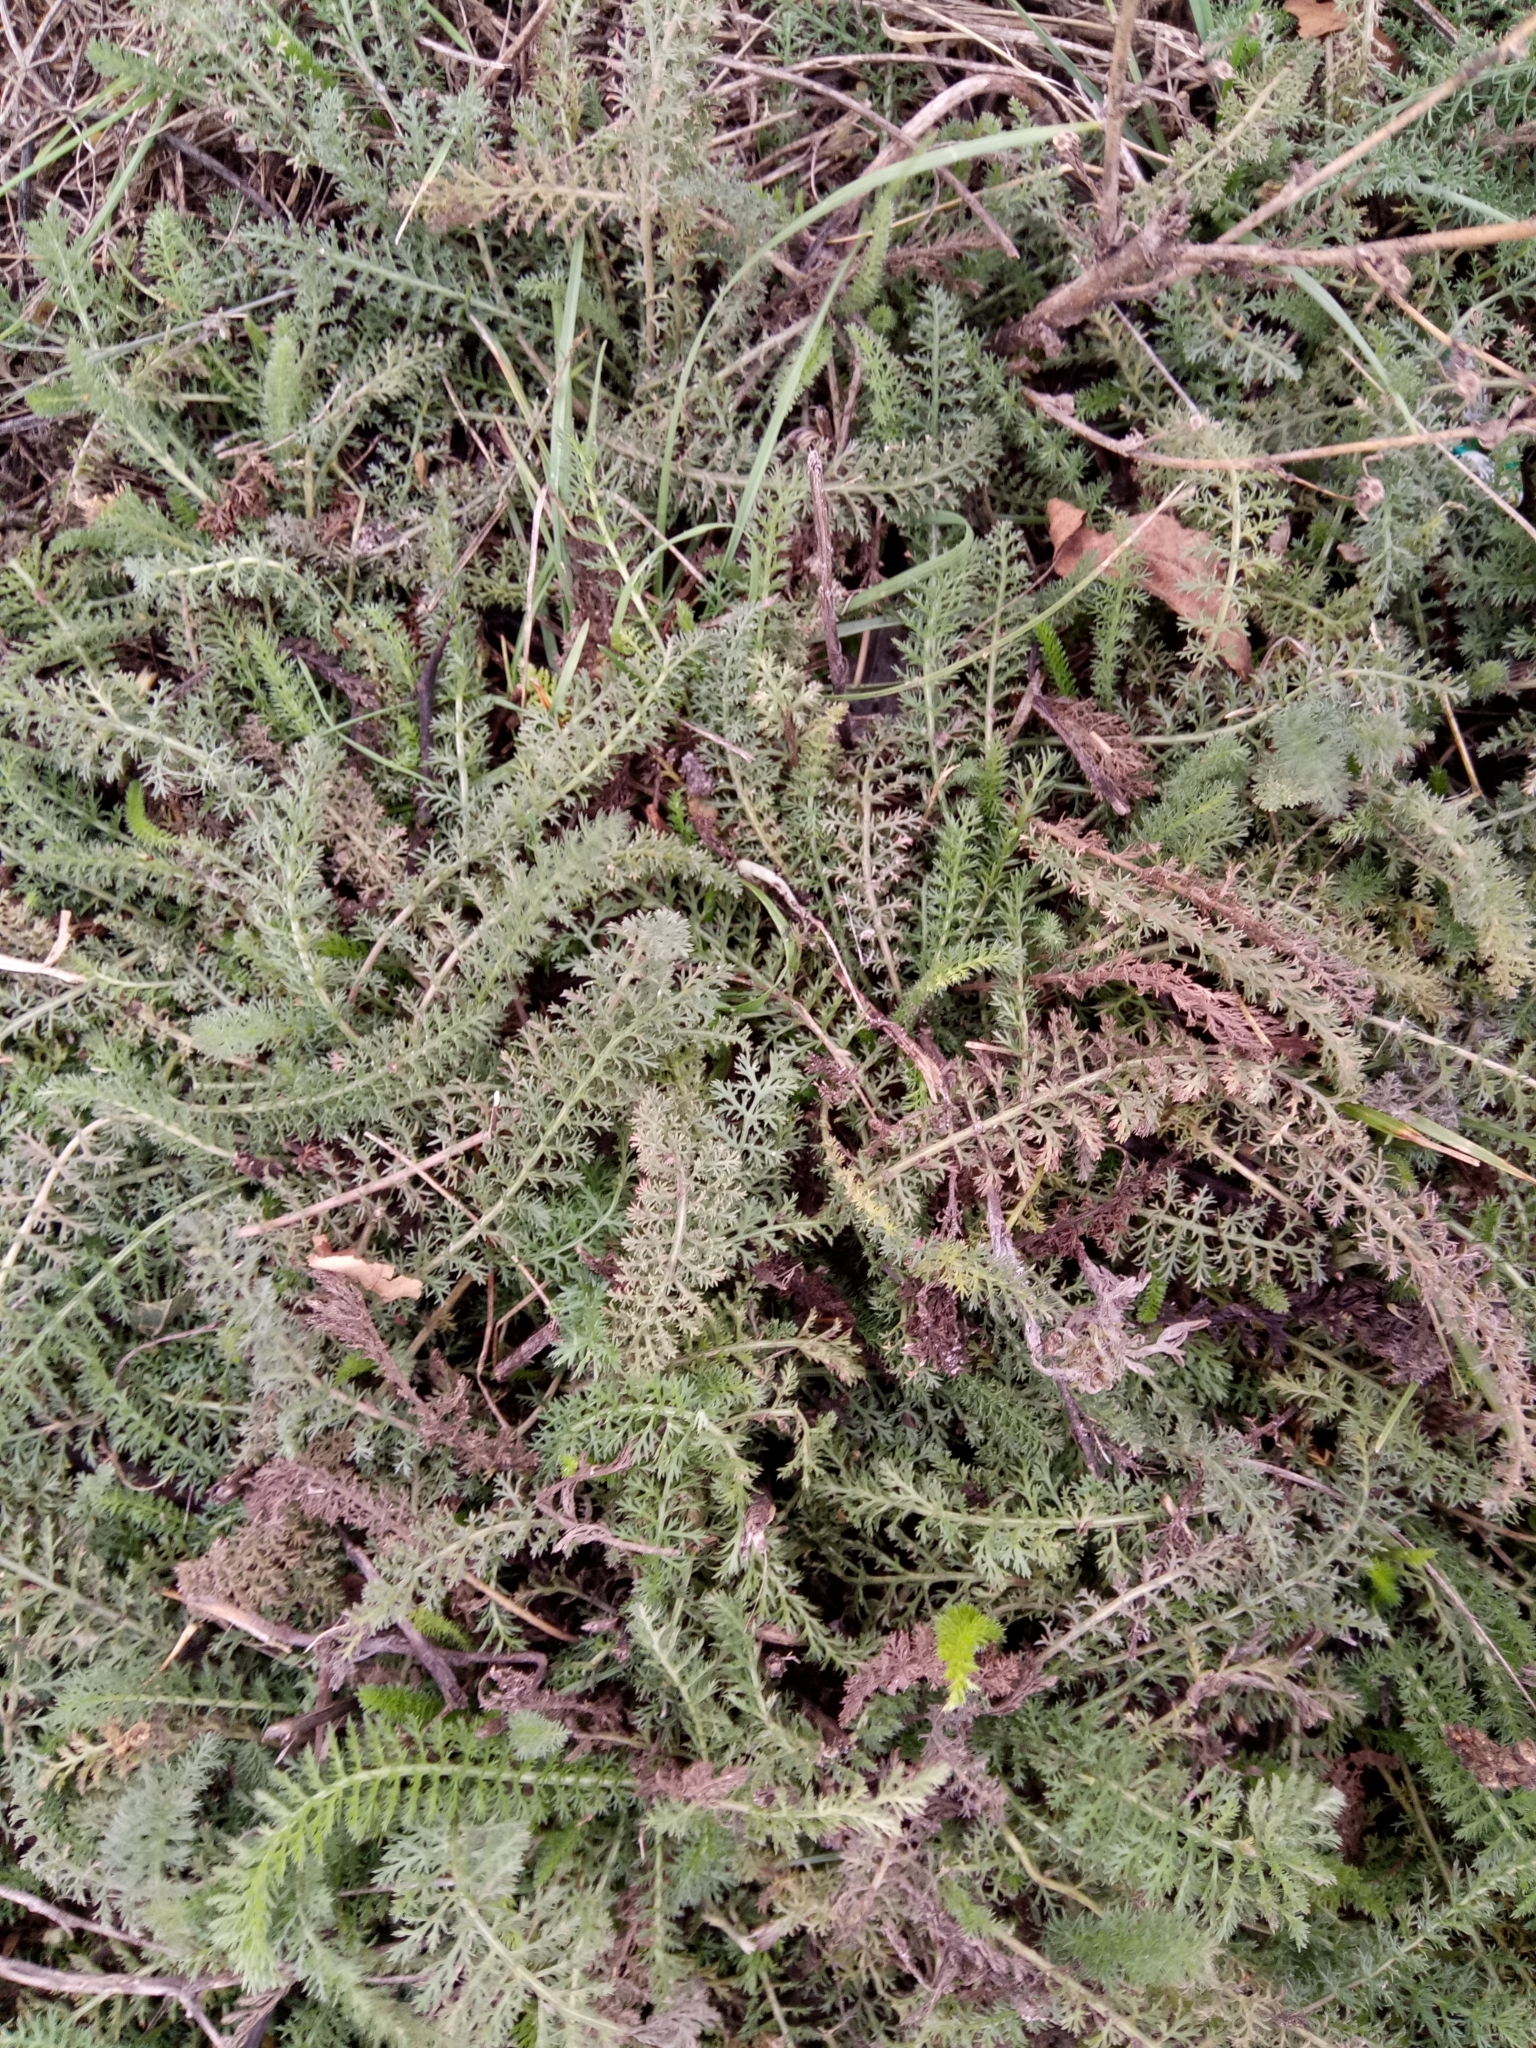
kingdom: Plantae
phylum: Tracheophyta
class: Magnoliopsida
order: Asterales
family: Asteraceae
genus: Achillea
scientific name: Achillea millefolium
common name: Yarrow
